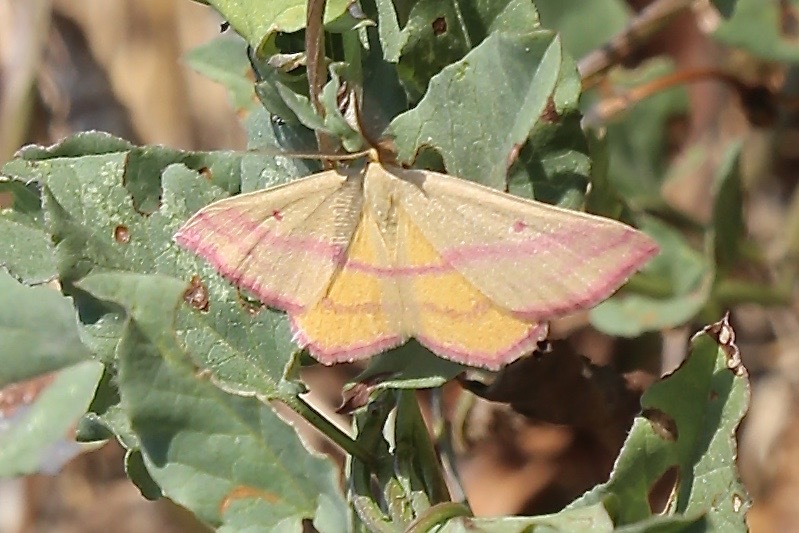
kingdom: Animalia
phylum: Arthropoda
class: Insecta
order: Lepidoptera
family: Geometridae
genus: Haematopis
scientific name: Haematopis grataria
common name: Chickweed geometer
